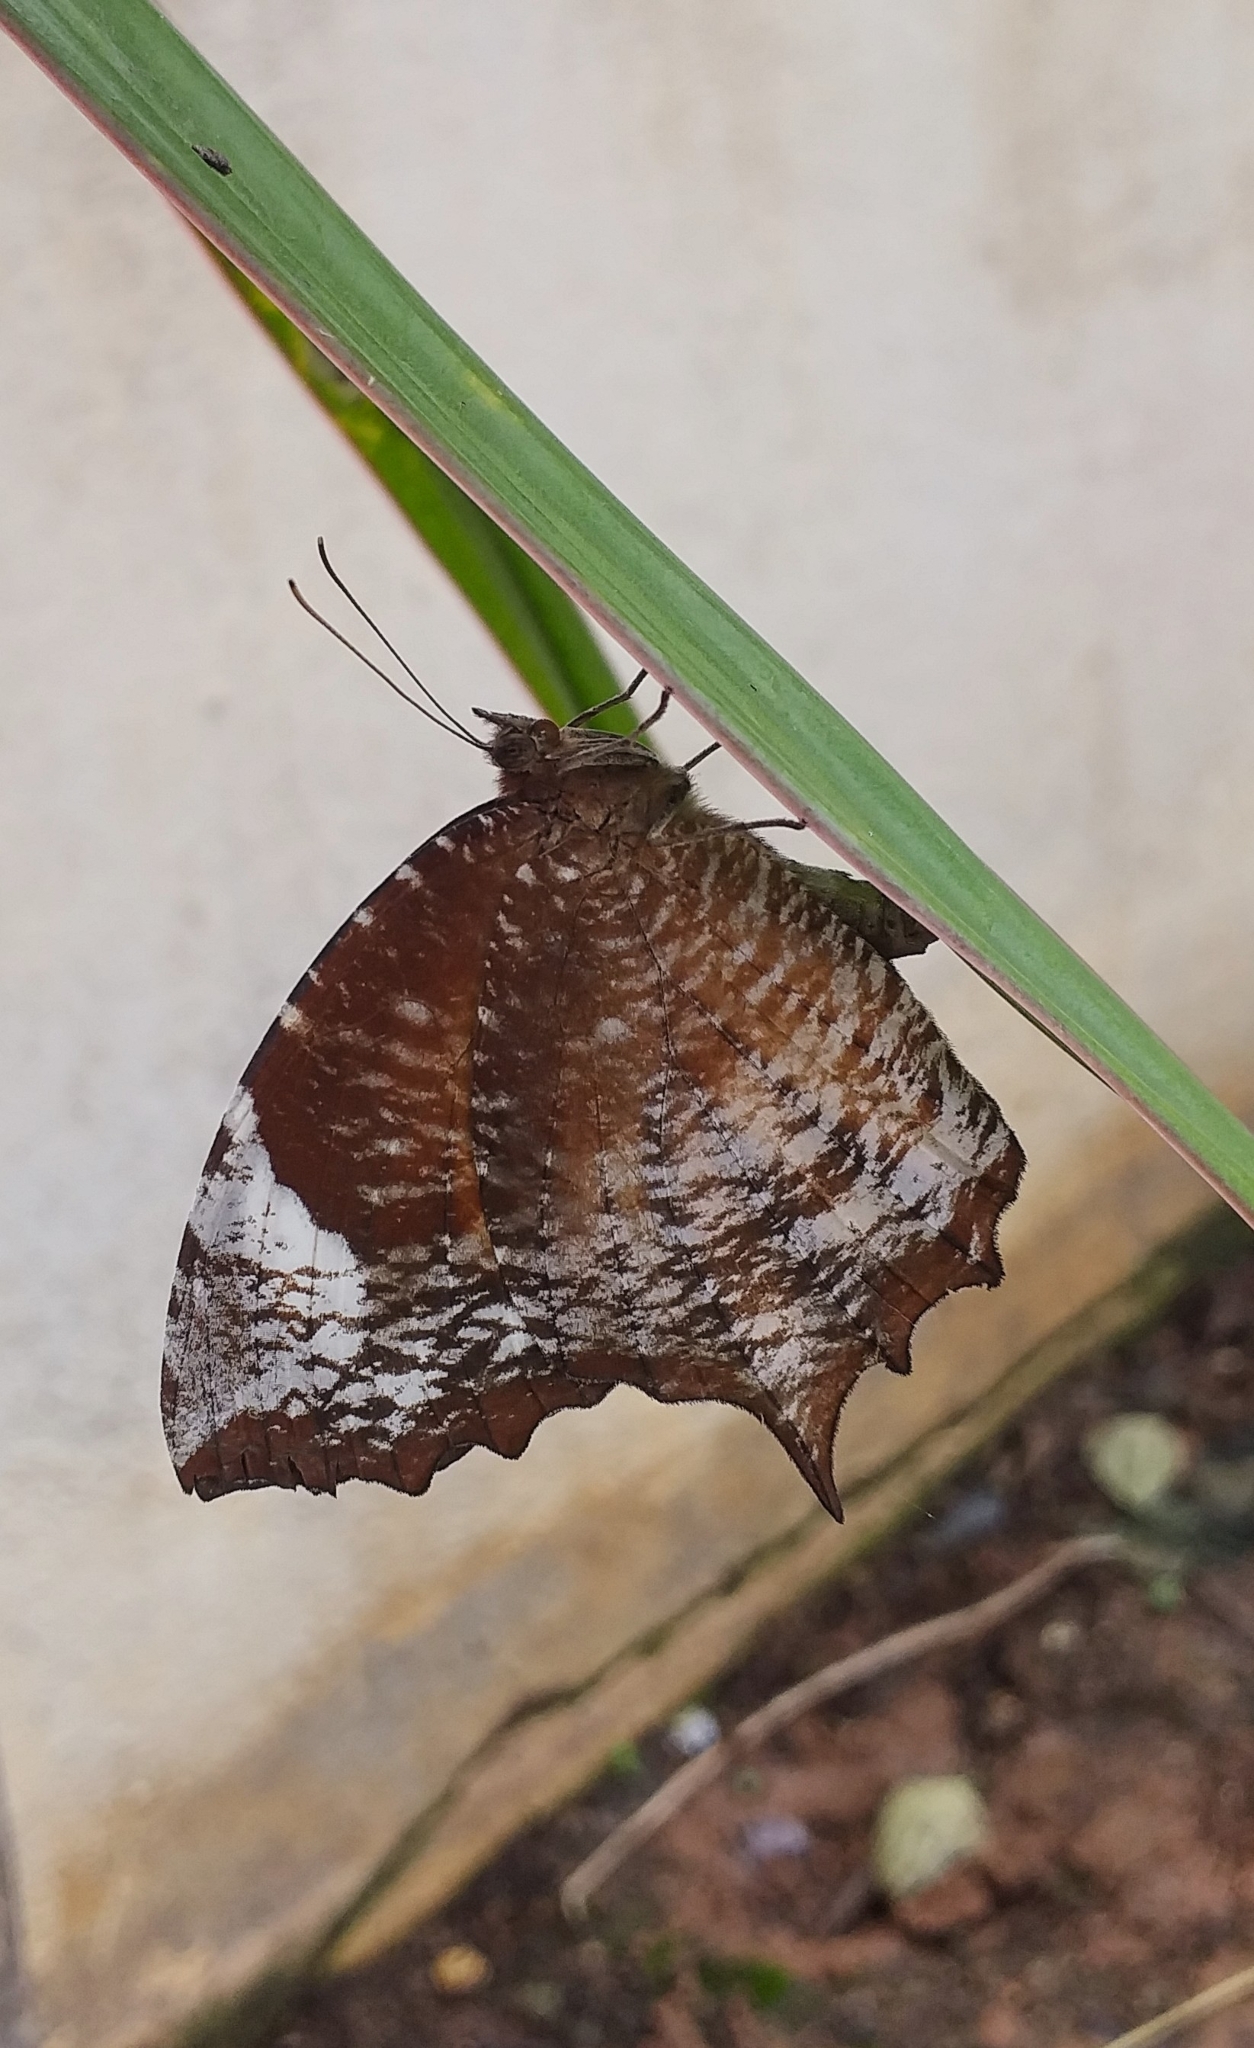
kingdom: Animalia
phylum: Arthropoda
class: Insecta
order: Lepidoptera
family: Nymphalidae
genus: Elymnias
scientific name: Elymnias caudata
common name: Tailed palmfly
